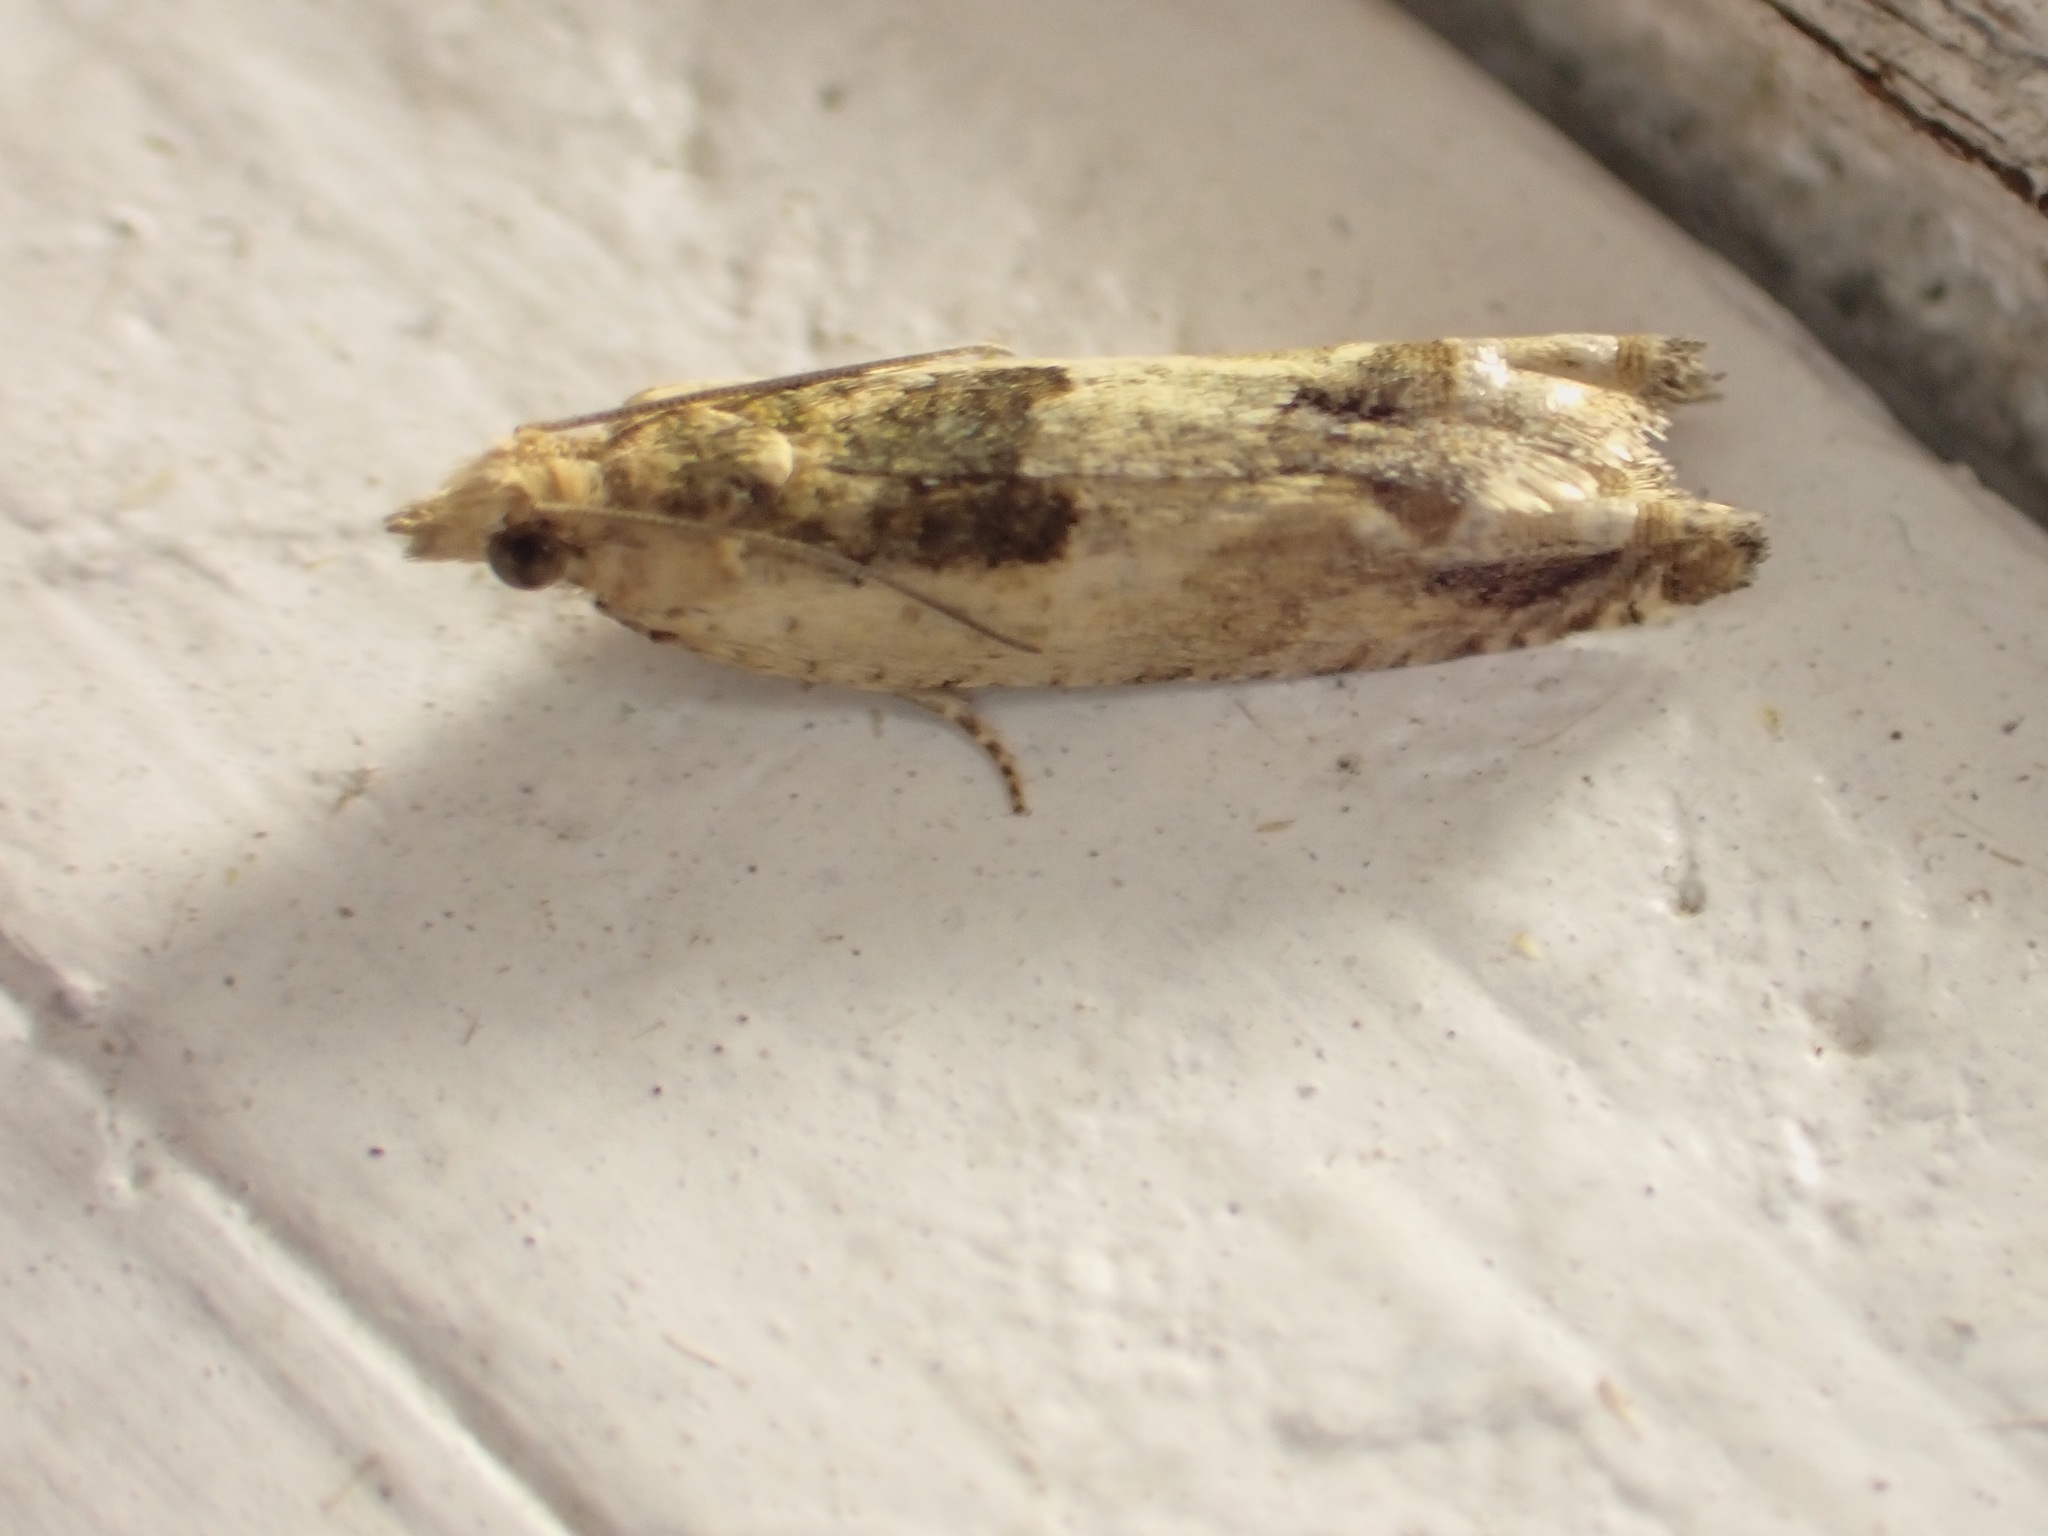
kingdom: Animalia
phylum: Arthropoda
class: Insecta
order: Lepidoptera
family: Tortricidae
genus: Crocidosema
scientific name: Crocidosema plebejana
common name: Southern bell
